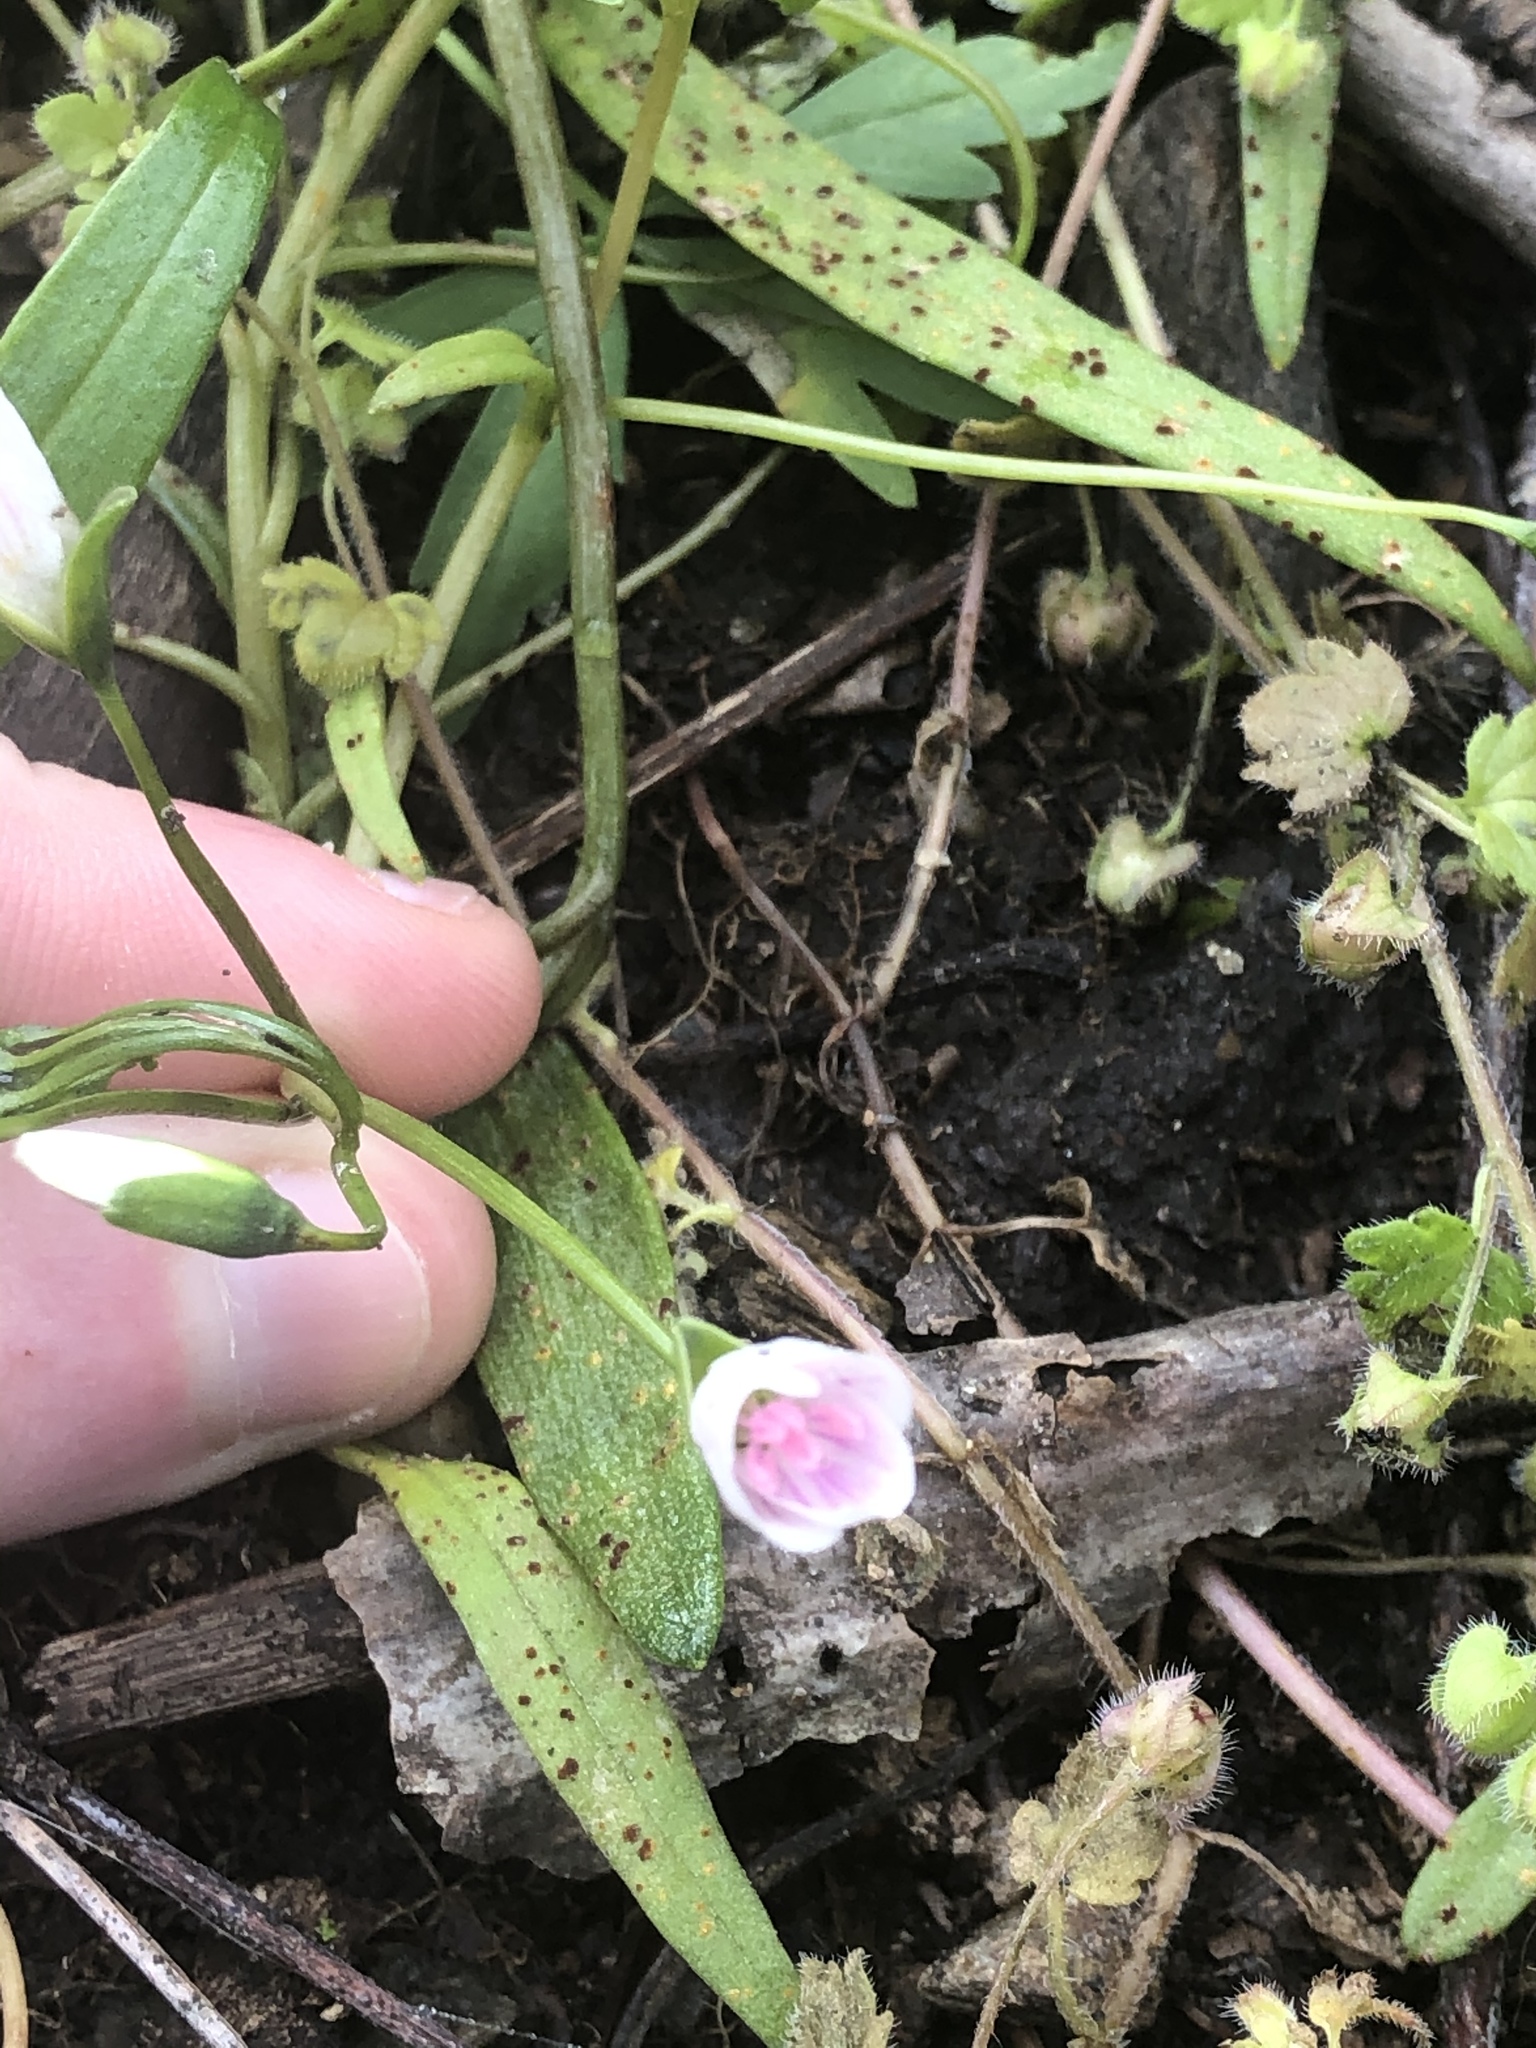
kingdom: Plantae
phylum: Tracheophyta
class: Magnoliopsida
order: Caryophyllales
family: Montiaceae
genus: Claytonia
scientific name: Claytonia virginica
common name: Virginia springbeauty
